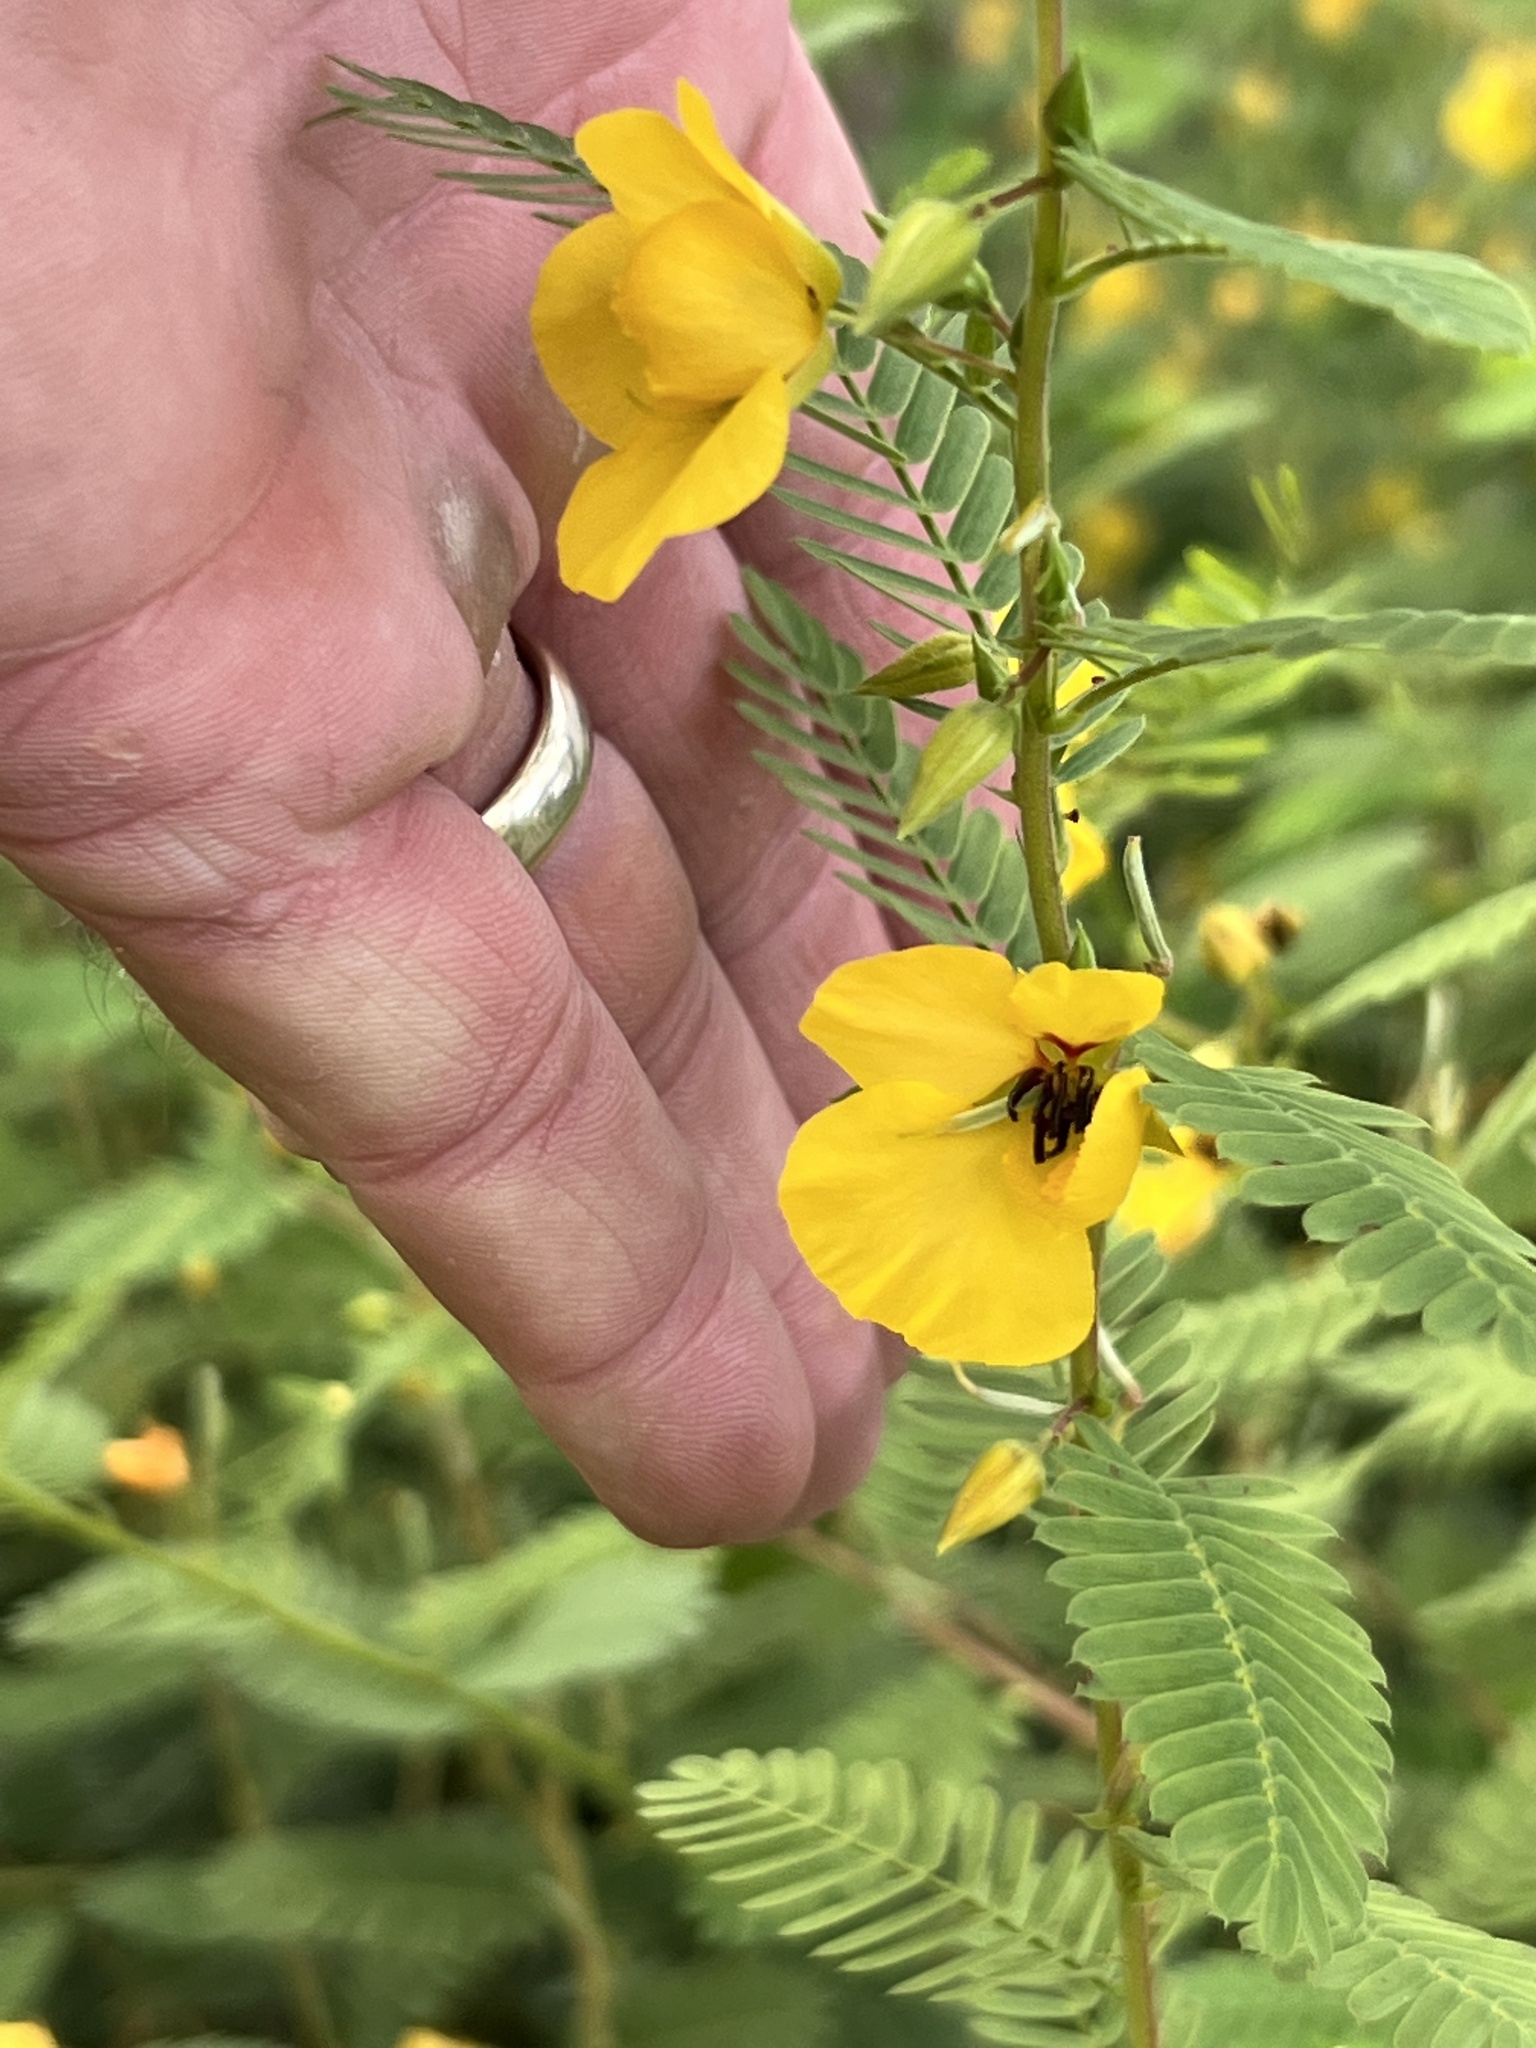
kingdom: Plantae
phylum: Tracheophyta
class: Magnoliopsida
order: Fabales
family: Fabaceae
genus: Chamaecrista
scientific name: Chamaecrista fasciculata
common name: Golden cassia
